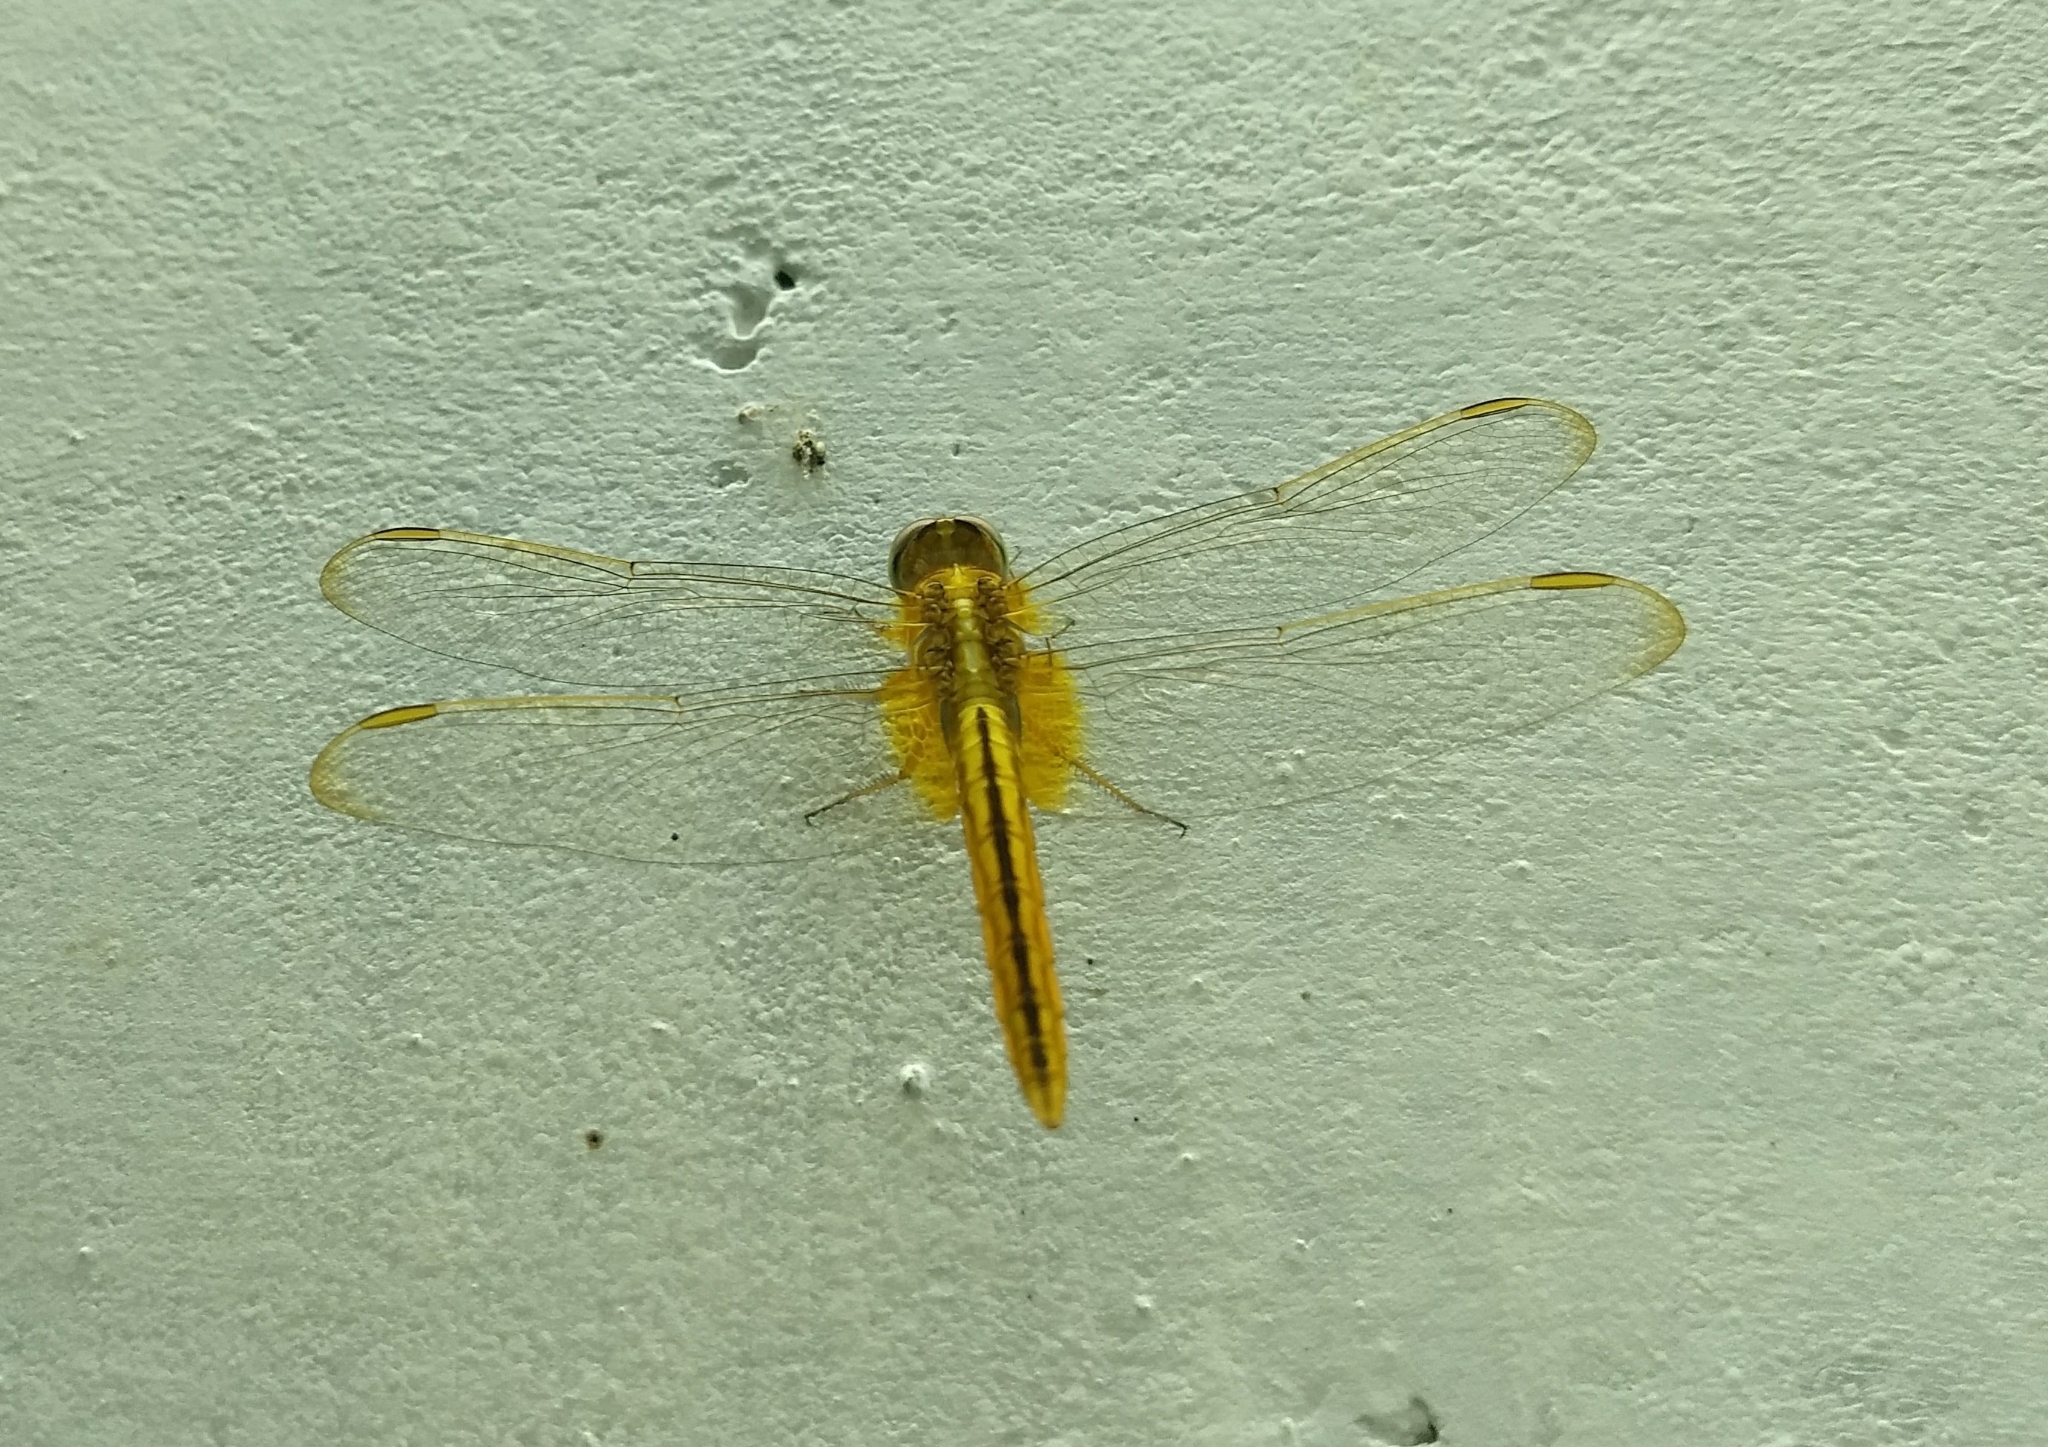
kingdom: Animalia
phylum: Arthropoda
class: Insecta
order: Odonata
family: Libellulidae
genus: Crocothemis
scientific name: Crocothemis servilia
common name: Scarlet skimmer
